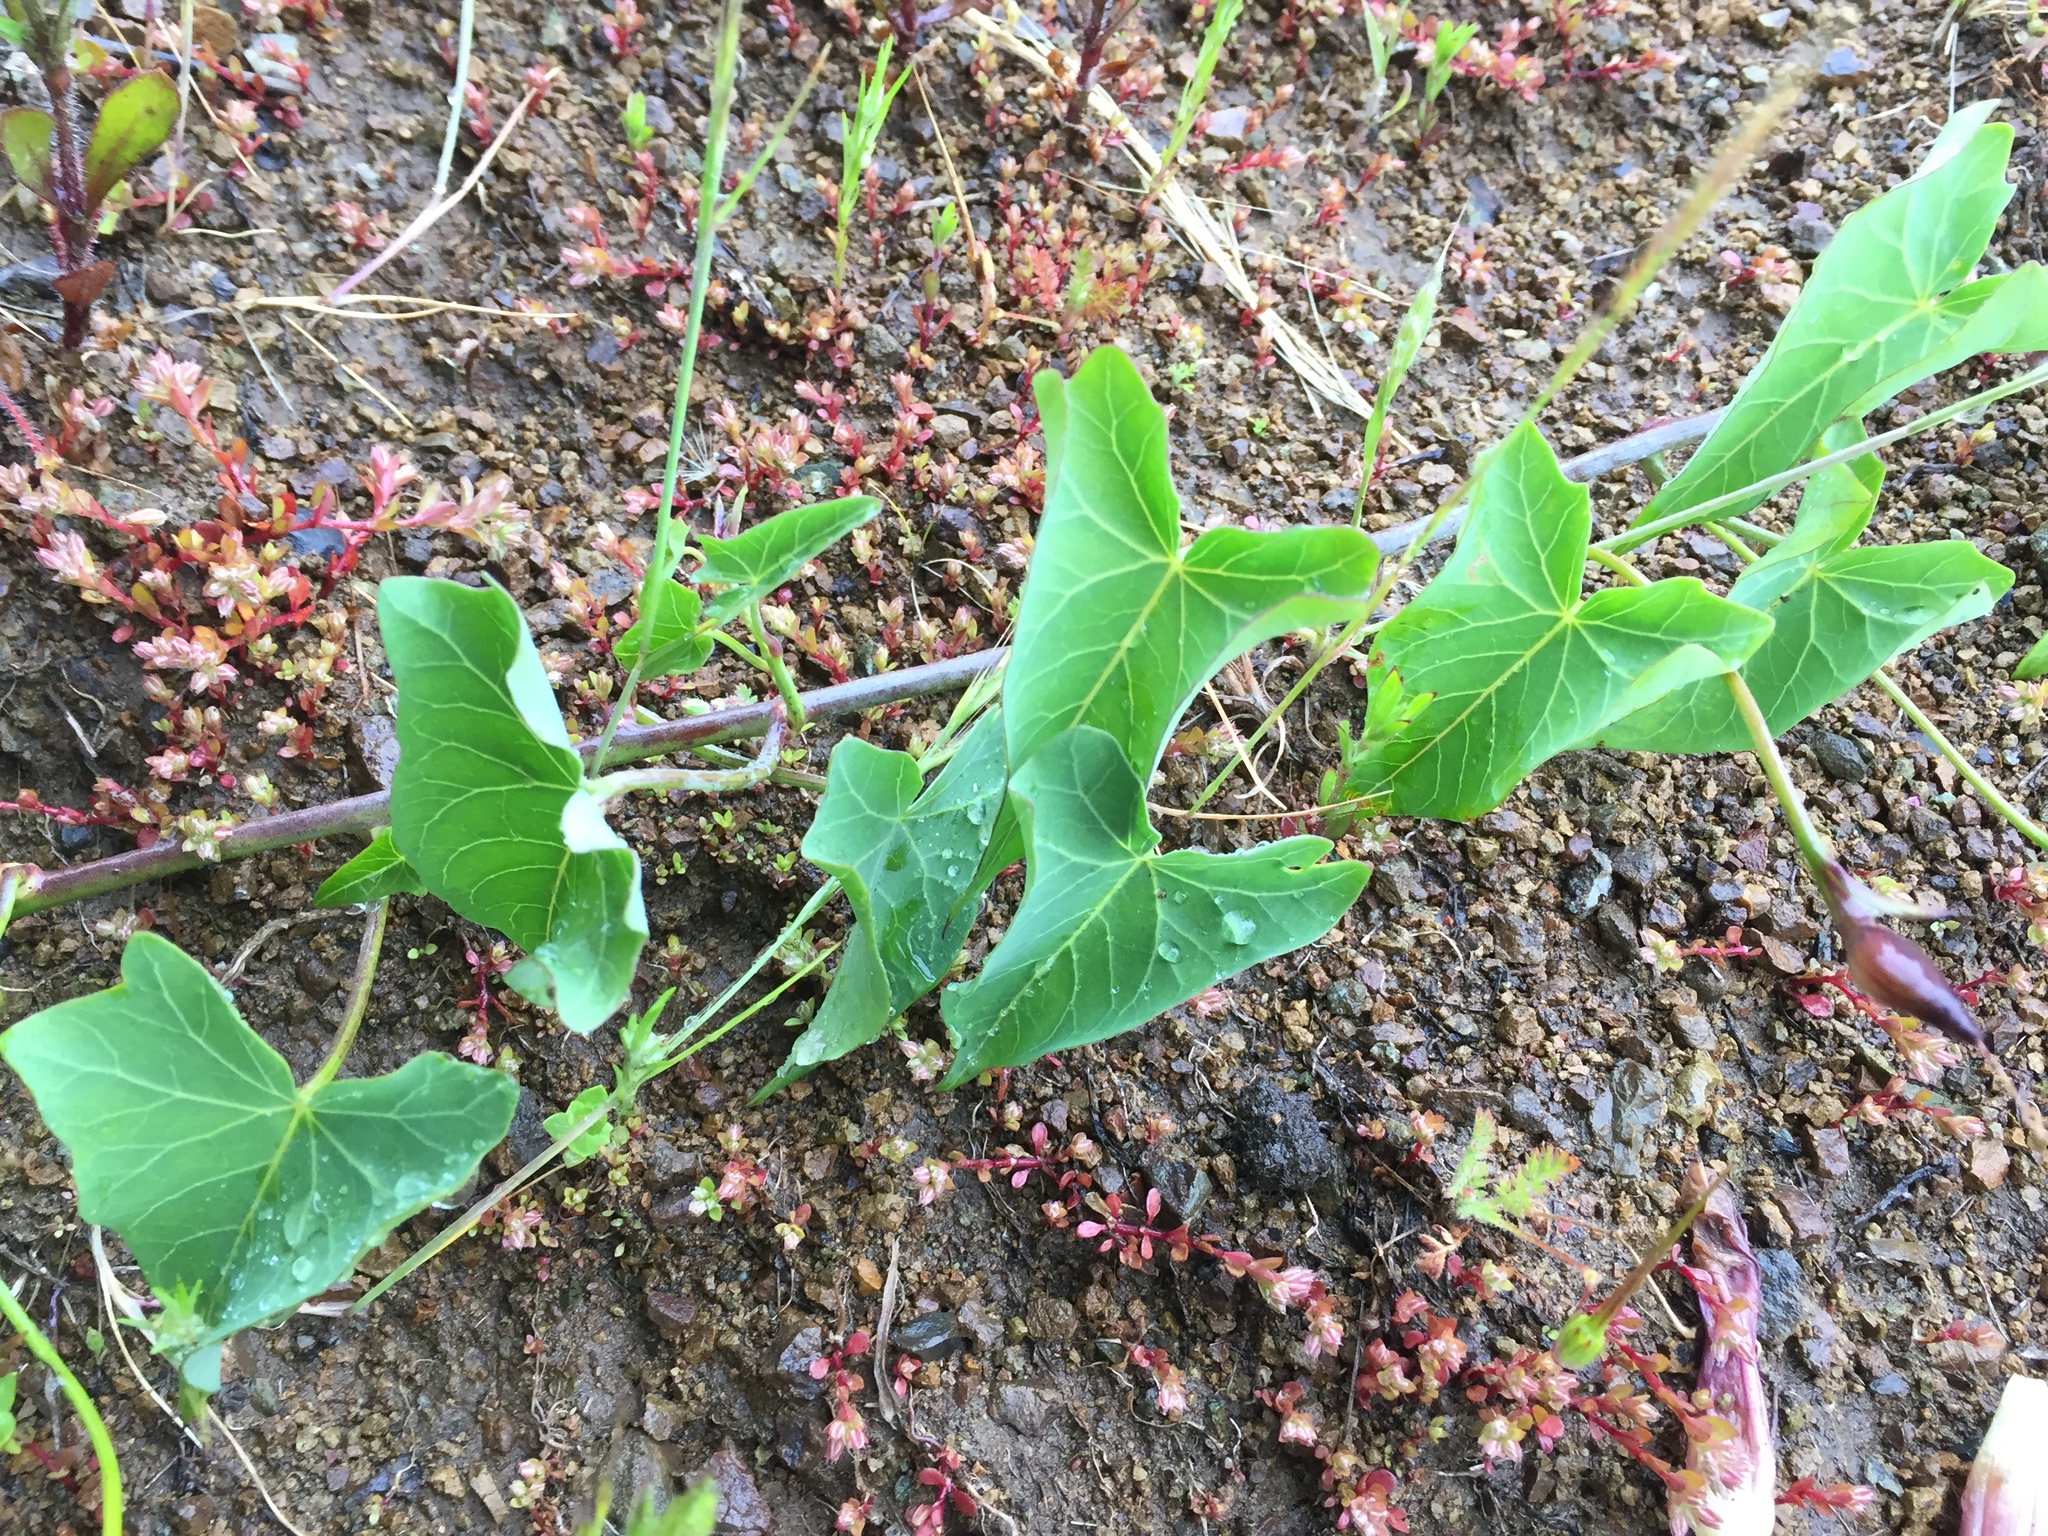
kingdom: Plantae
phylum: Tracheophyta
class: Magnoliopsida
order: Solanales
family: Convolvulaceae
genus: Calystegia
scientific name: Calystegia purpurata
